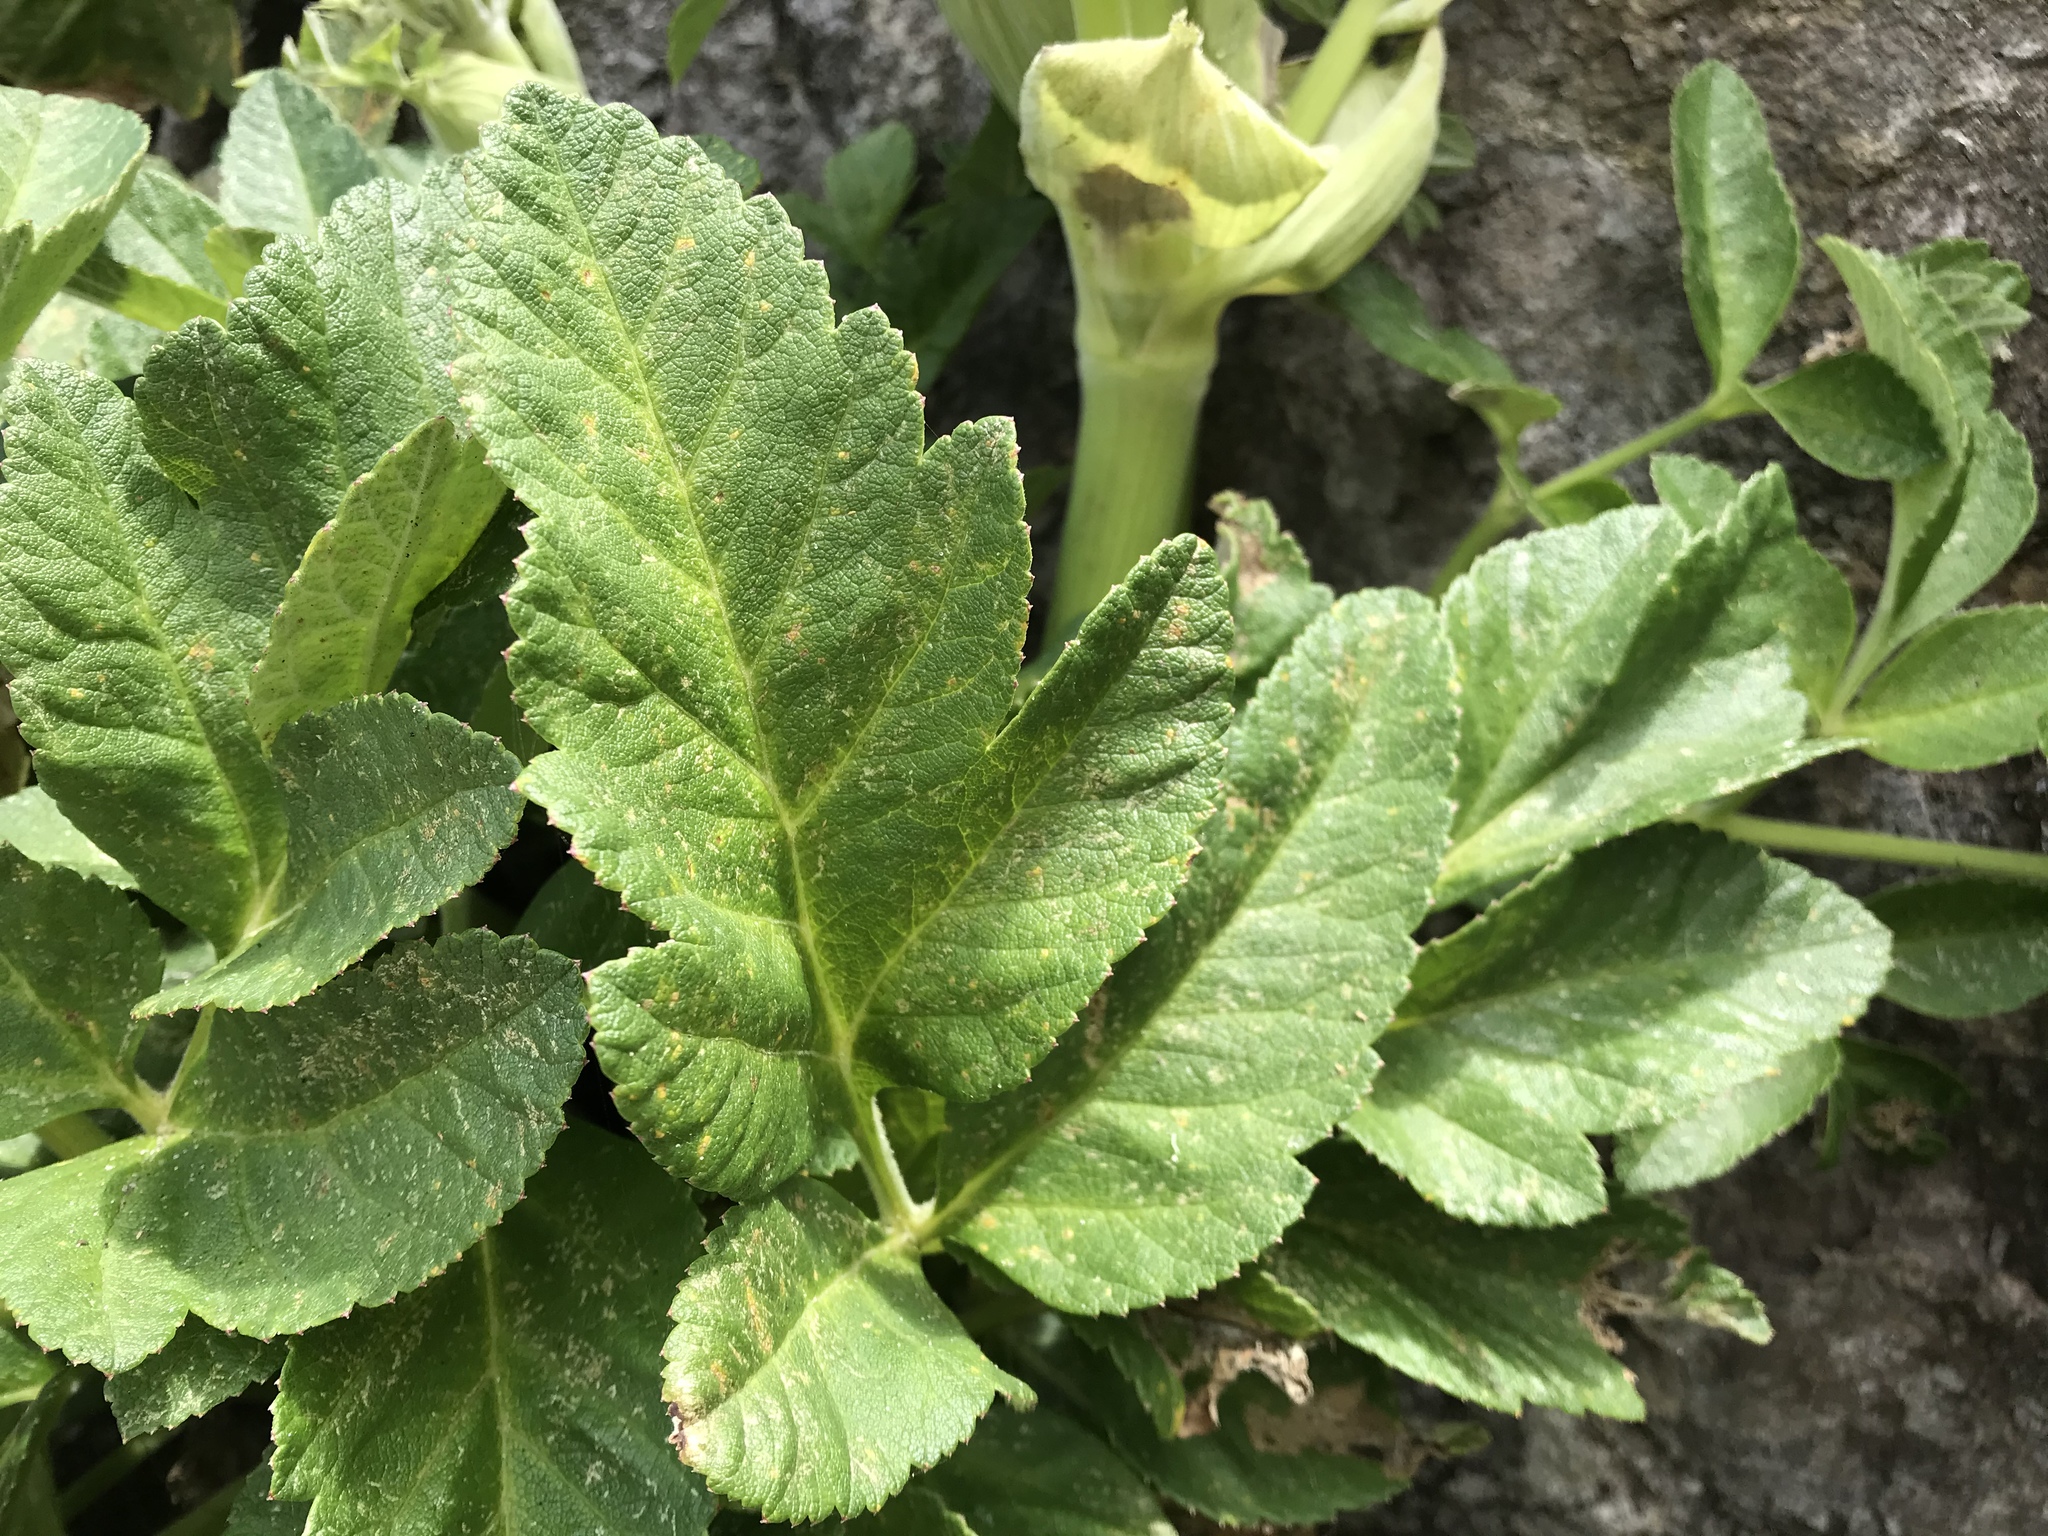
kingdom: Plantae
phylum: Tracheophyta
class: Magnoliopsida
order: Apiales
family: Apiaceae
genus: Angelica
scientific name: Angelica hendersonii
